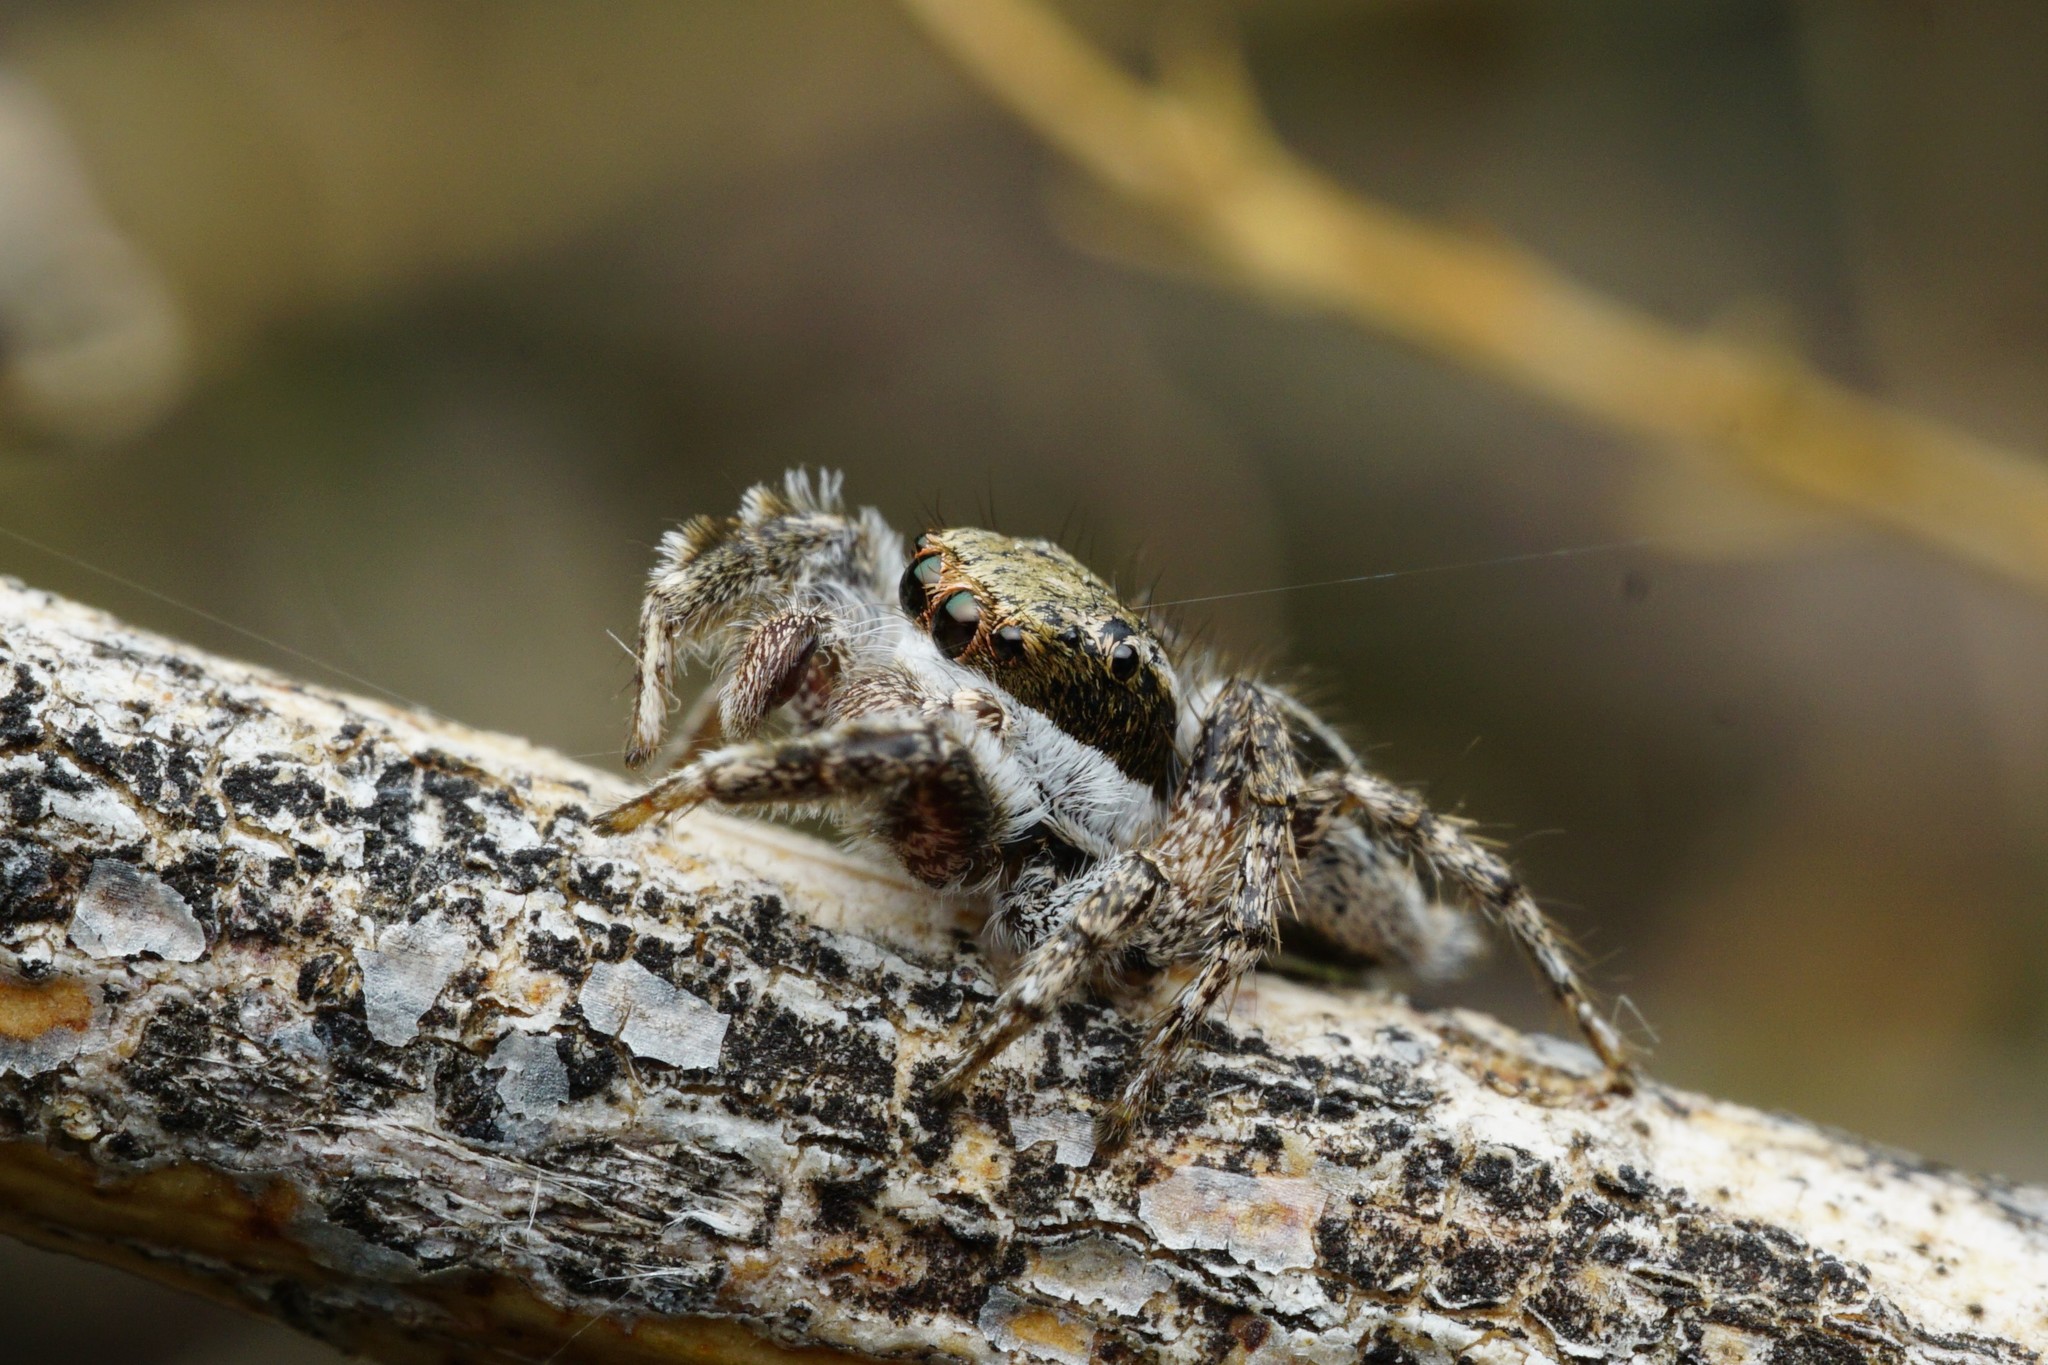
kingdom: Animalia
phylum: Arthropoda
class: Arachnida
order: Araneae
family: Salticidae
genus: Habronattus
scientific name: Habronattus conjunctus
